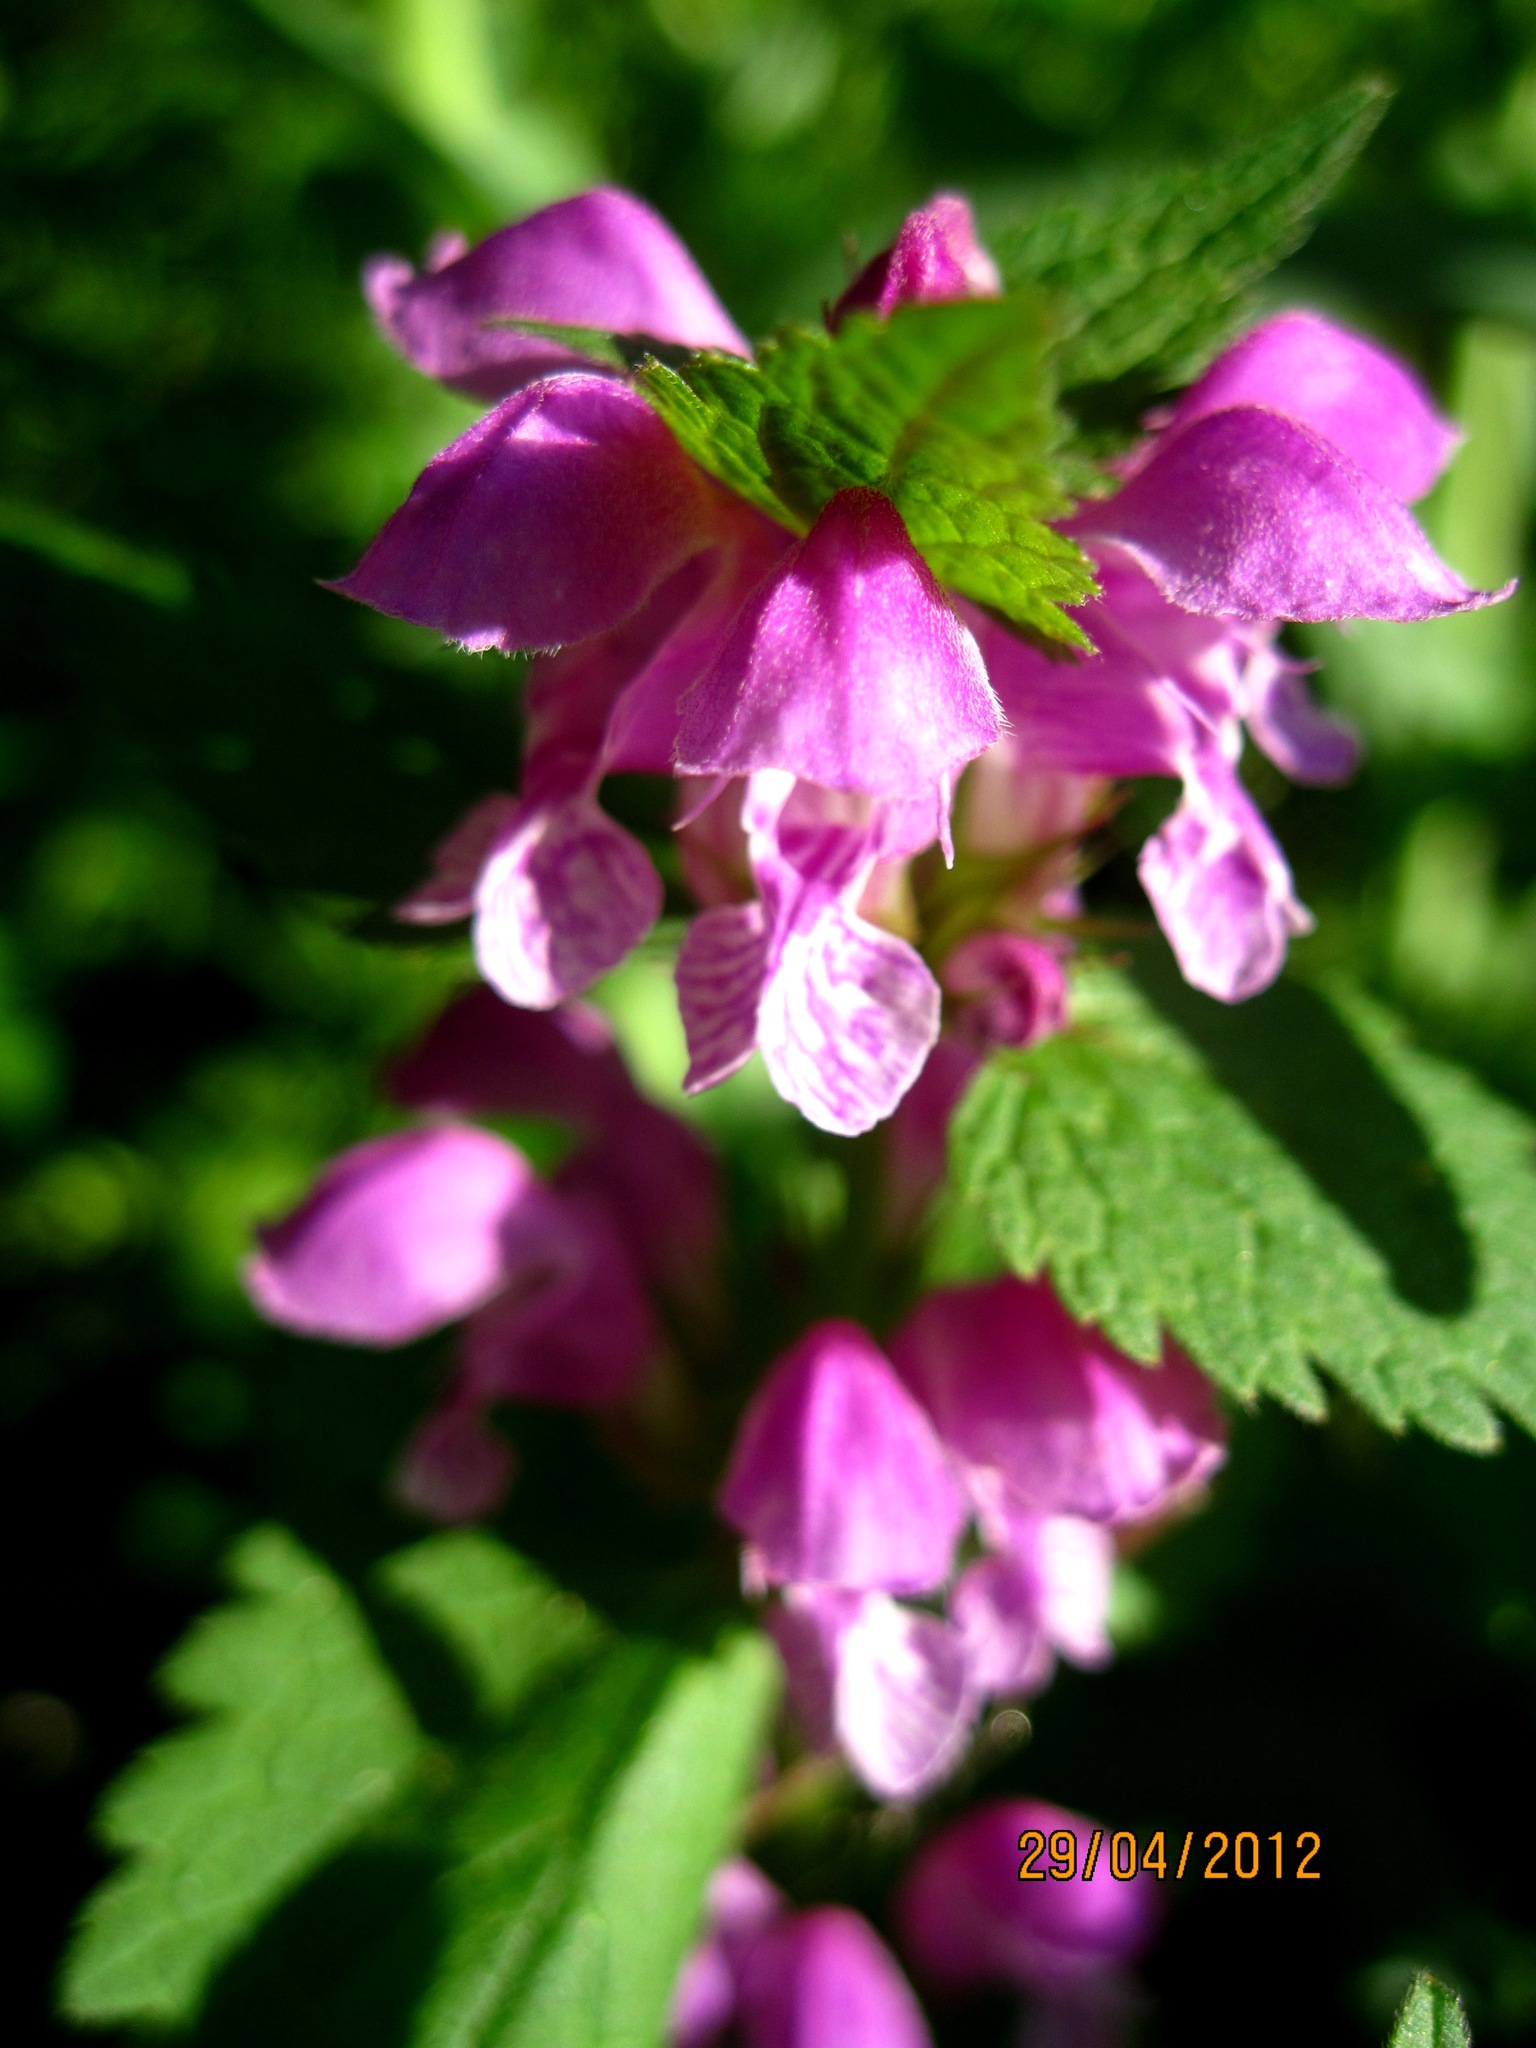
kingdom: Plantae
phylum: Tracheophyta
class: Magnoliopsida
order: Lamiales
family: Lamiaceae
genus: Lamium
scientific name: Lamium maculatum
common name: Spotted dead-nettle
